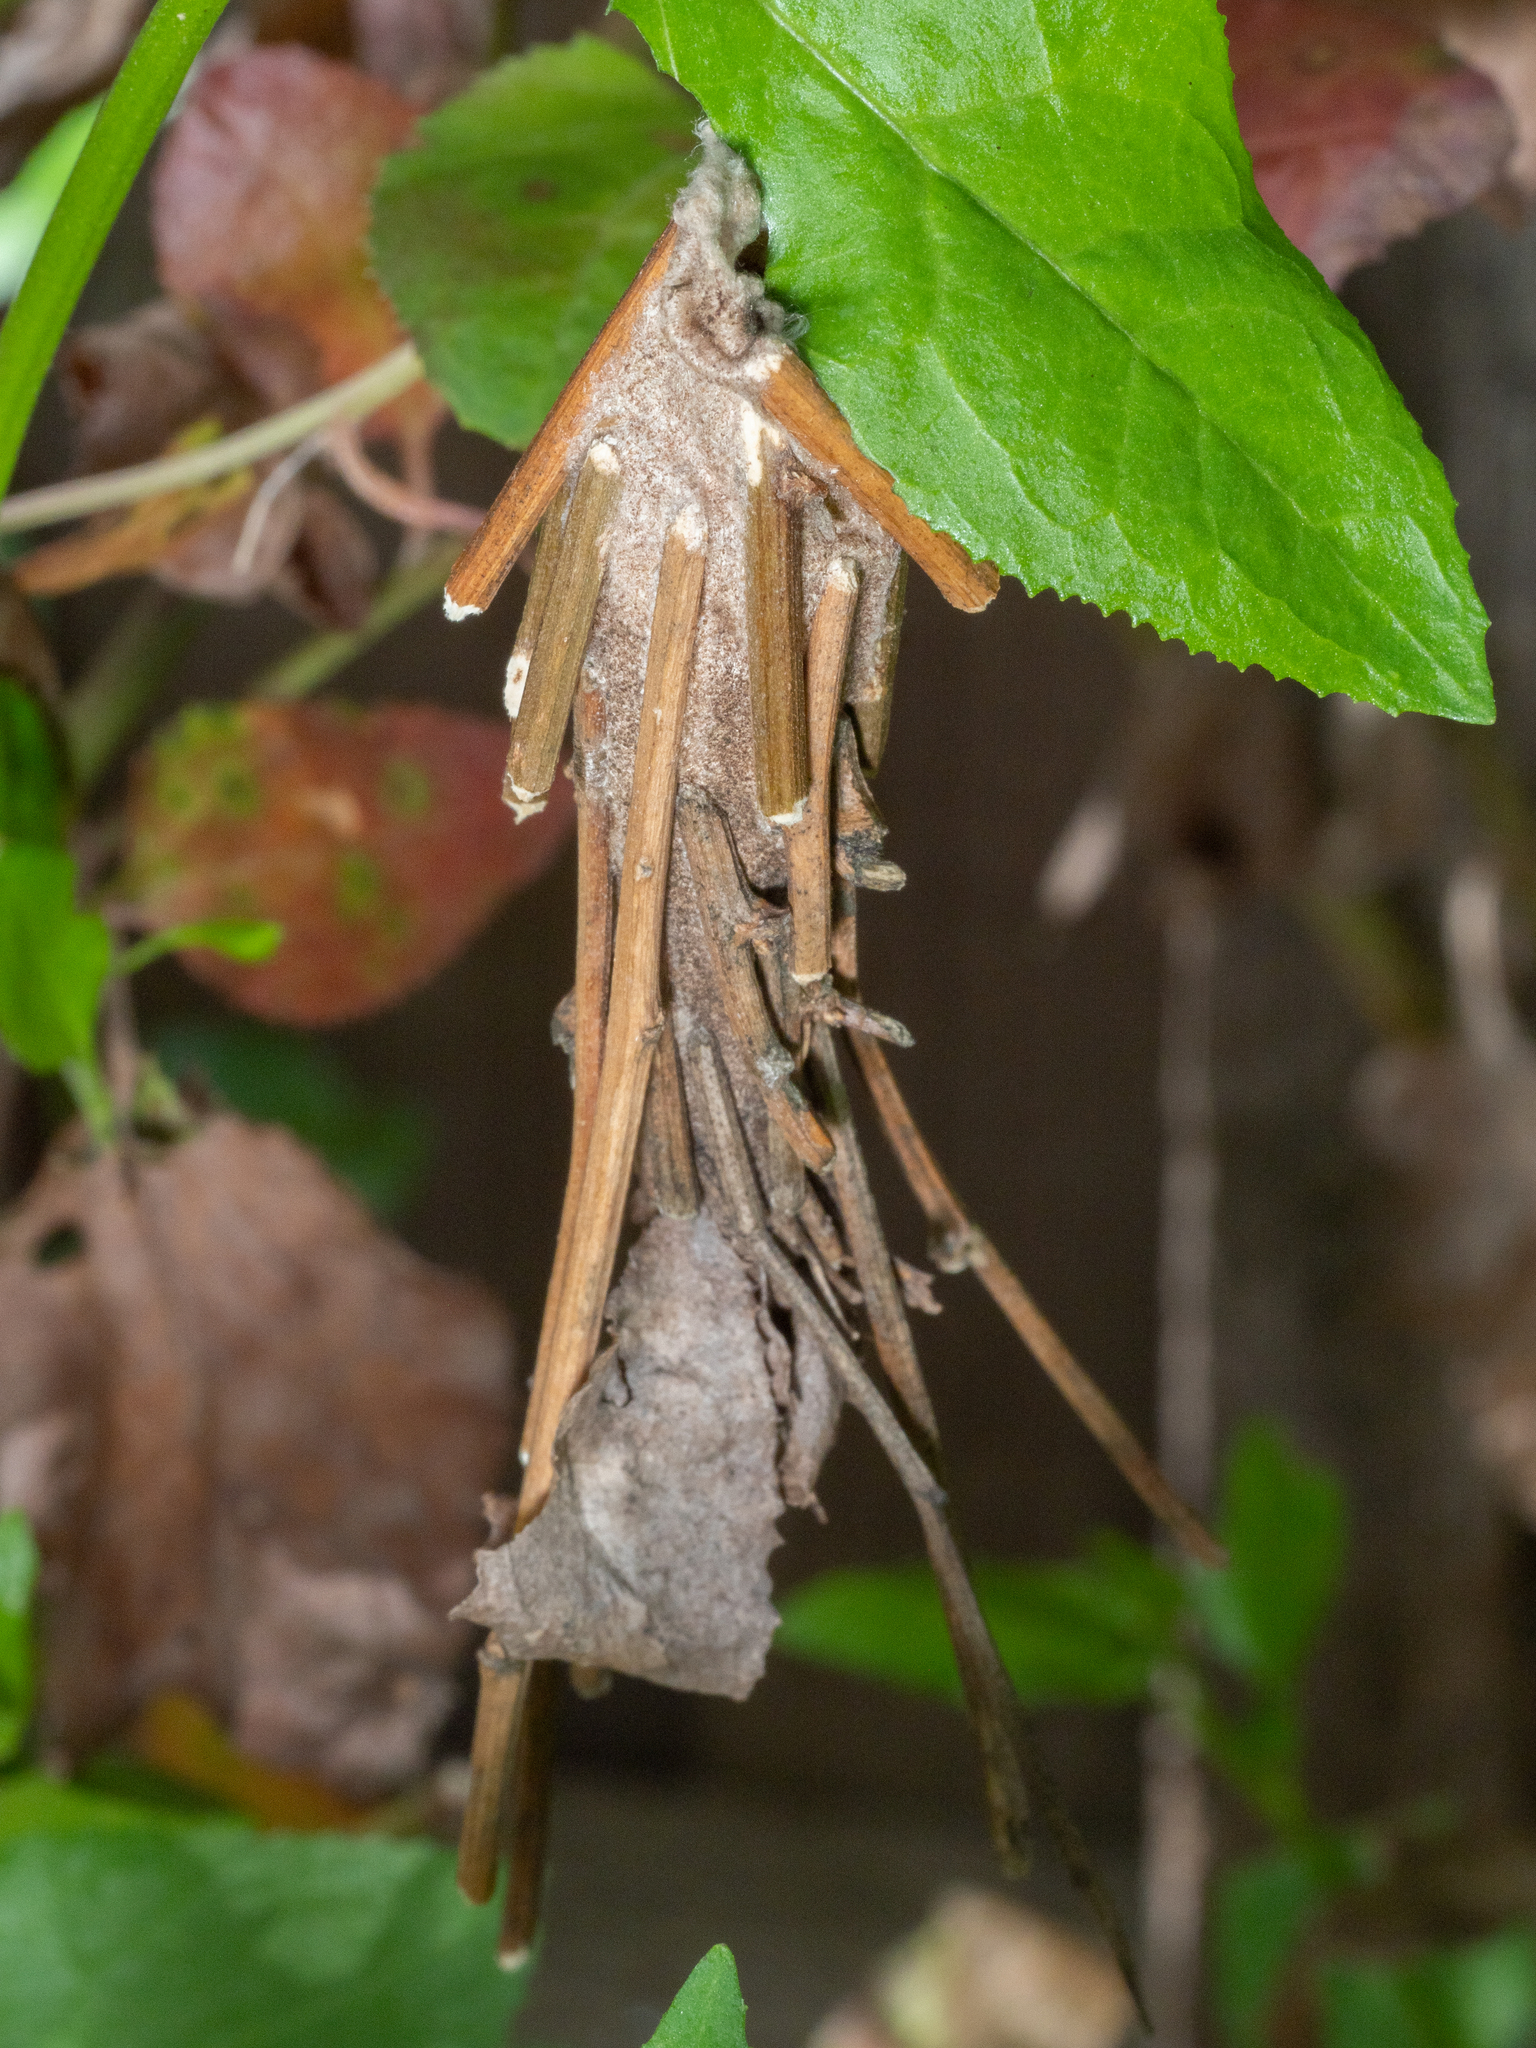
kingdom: Animalia
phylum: Arthropoda
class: Insecta
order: Lepidoptera
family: Psychidae
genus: Metura
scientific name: Metura elongatus
